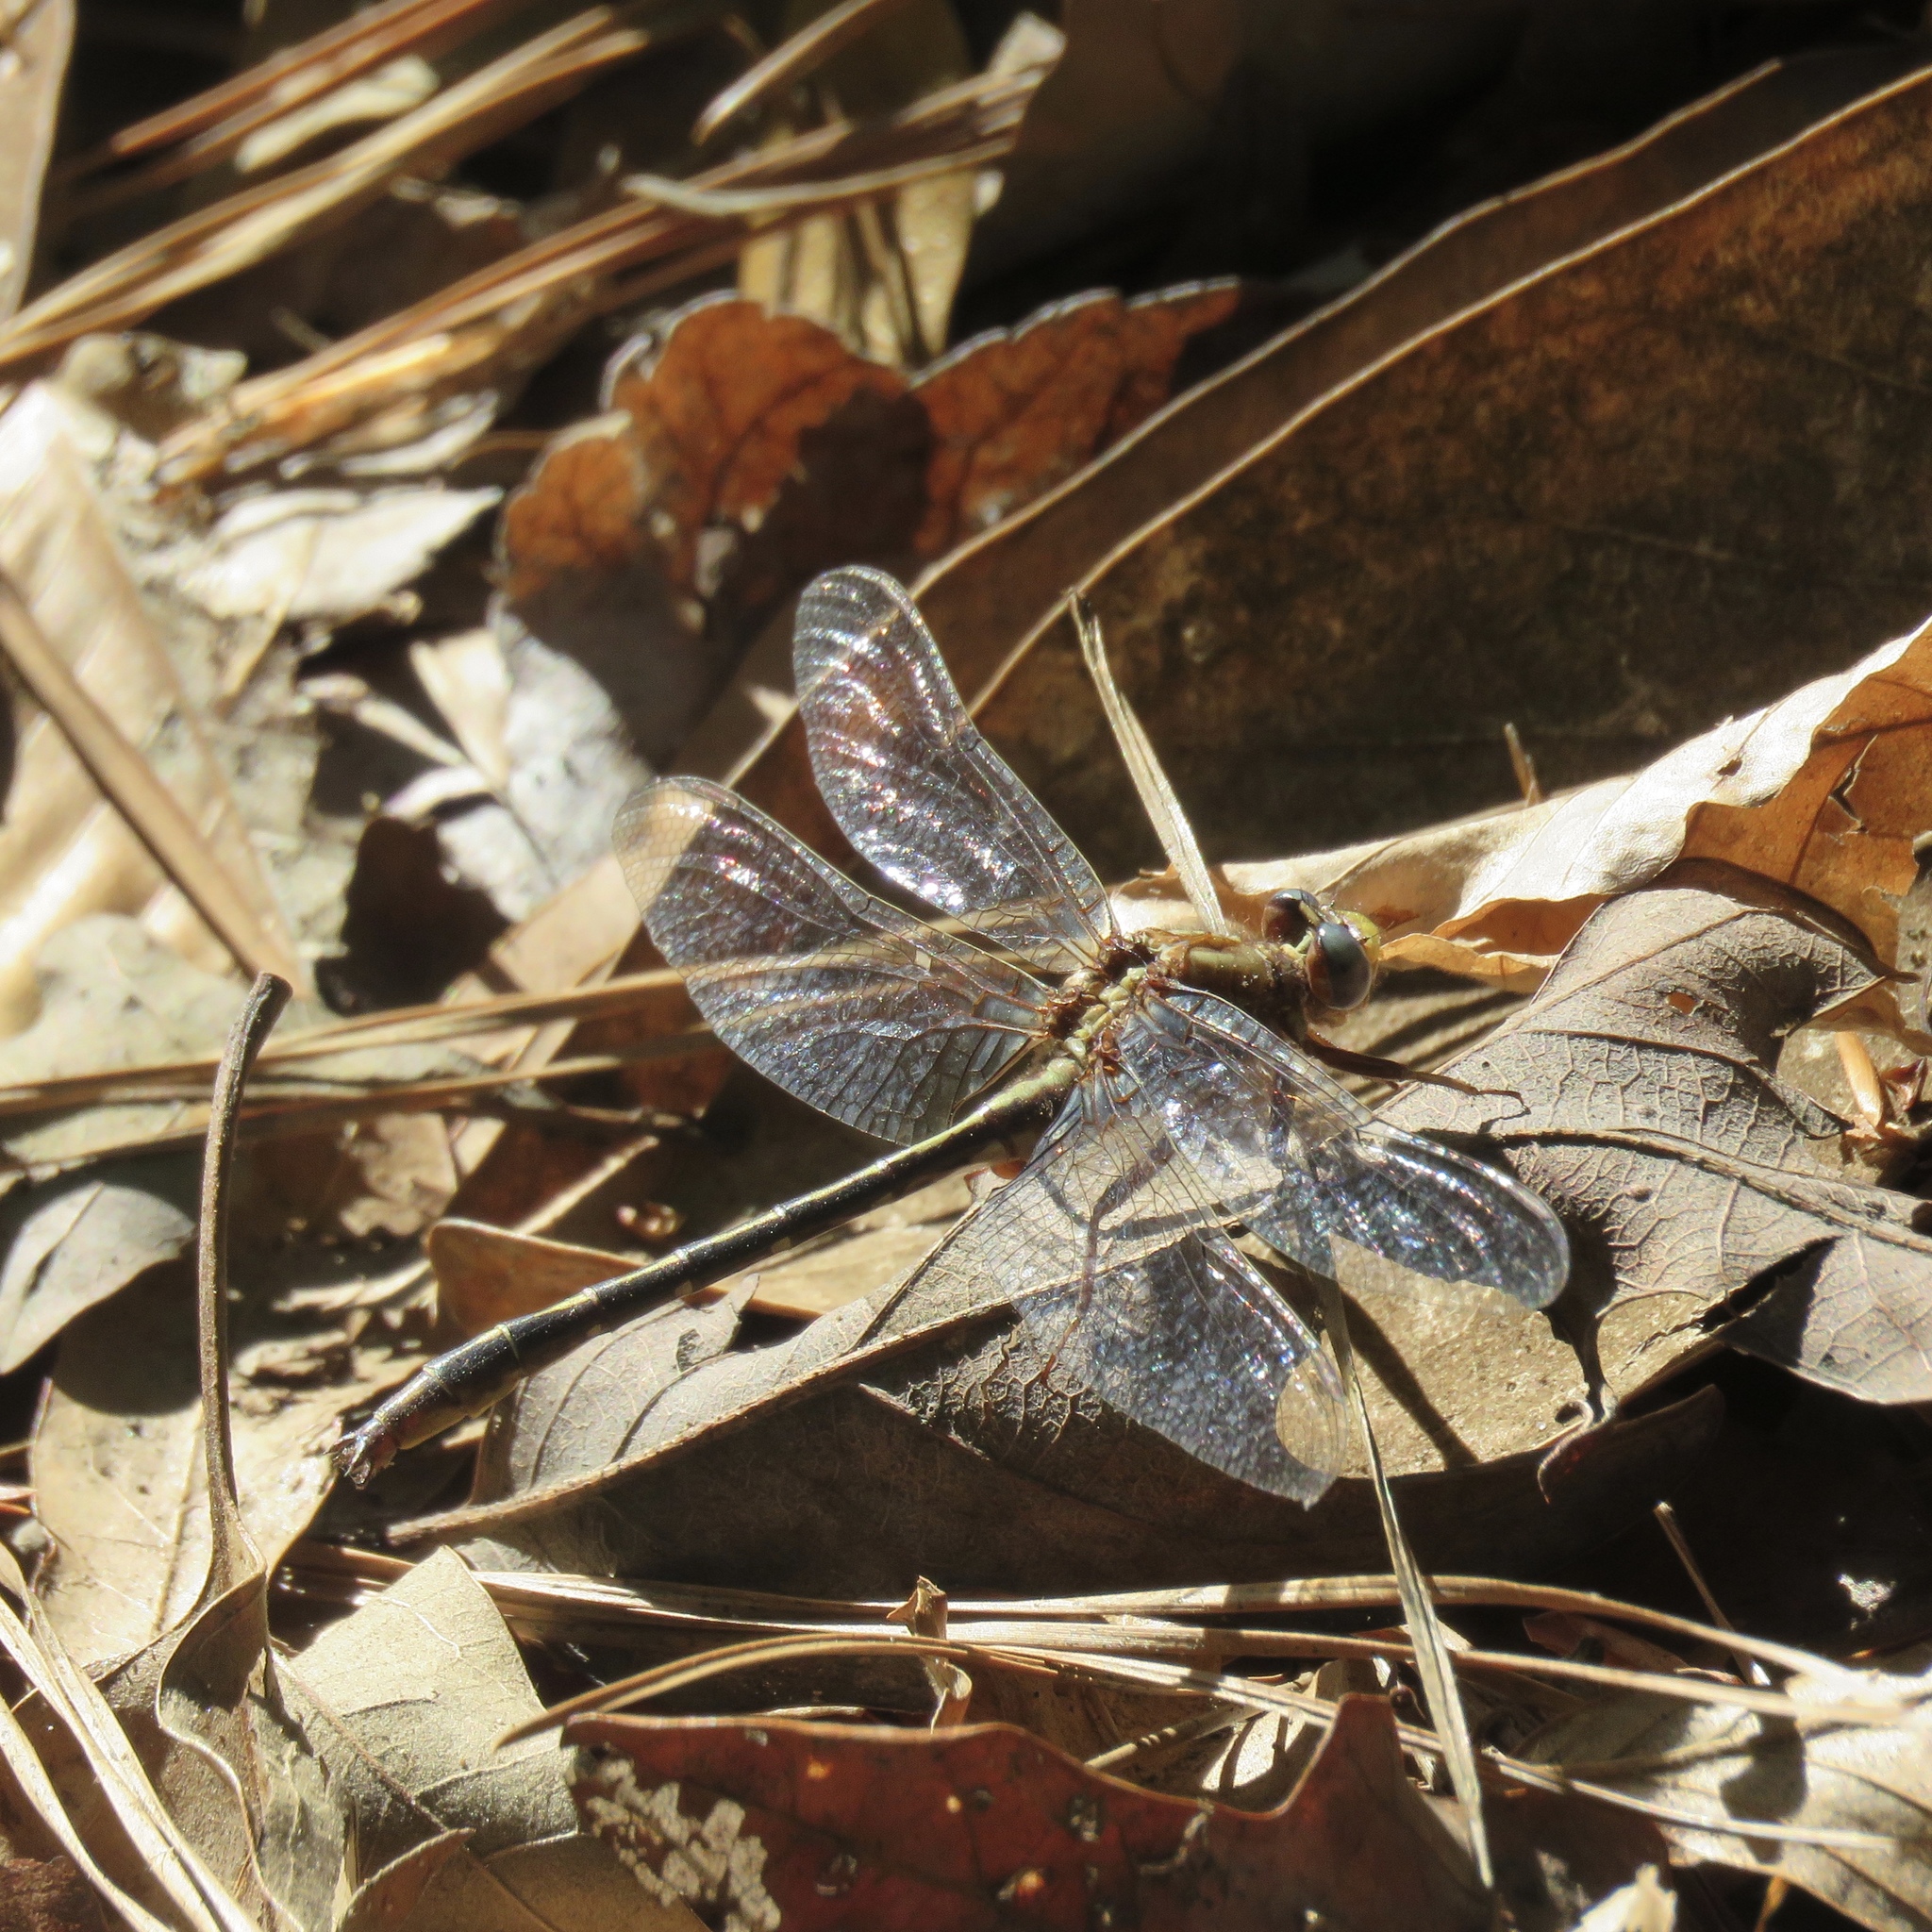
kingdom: Animalia
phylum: Arthropoda
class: Insecta
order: Odonata
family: Gomphidae
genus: Phanogomphus
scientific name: Phanogomphus lividus
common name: Ashy clubtail
